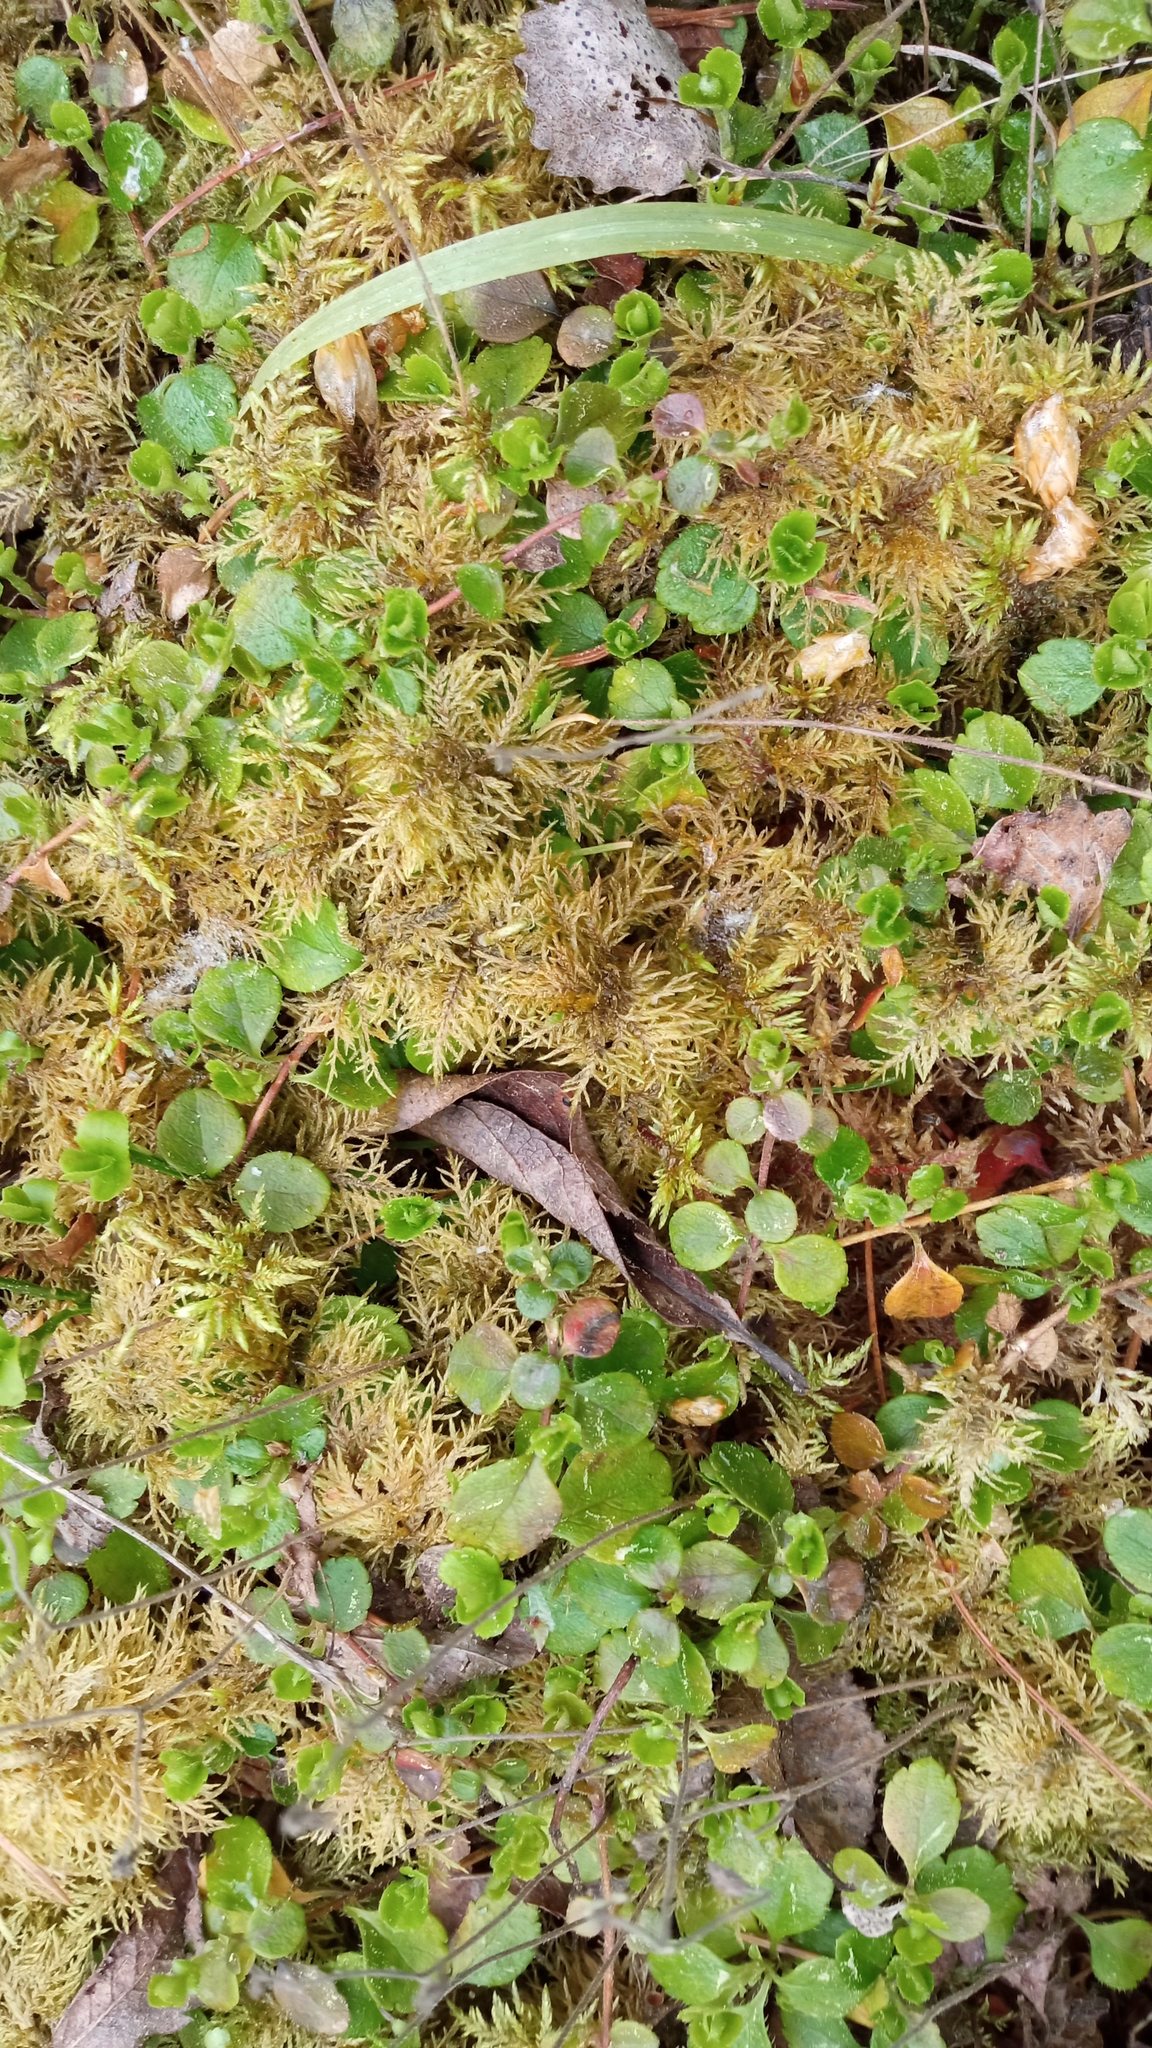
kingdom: Plantae
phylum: Bryophyta
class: Bryopsida
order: Hypnales
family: Hylocomiaceae
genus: Hylocomium
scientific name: Hylocomium splendens
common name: Stairstep moss
